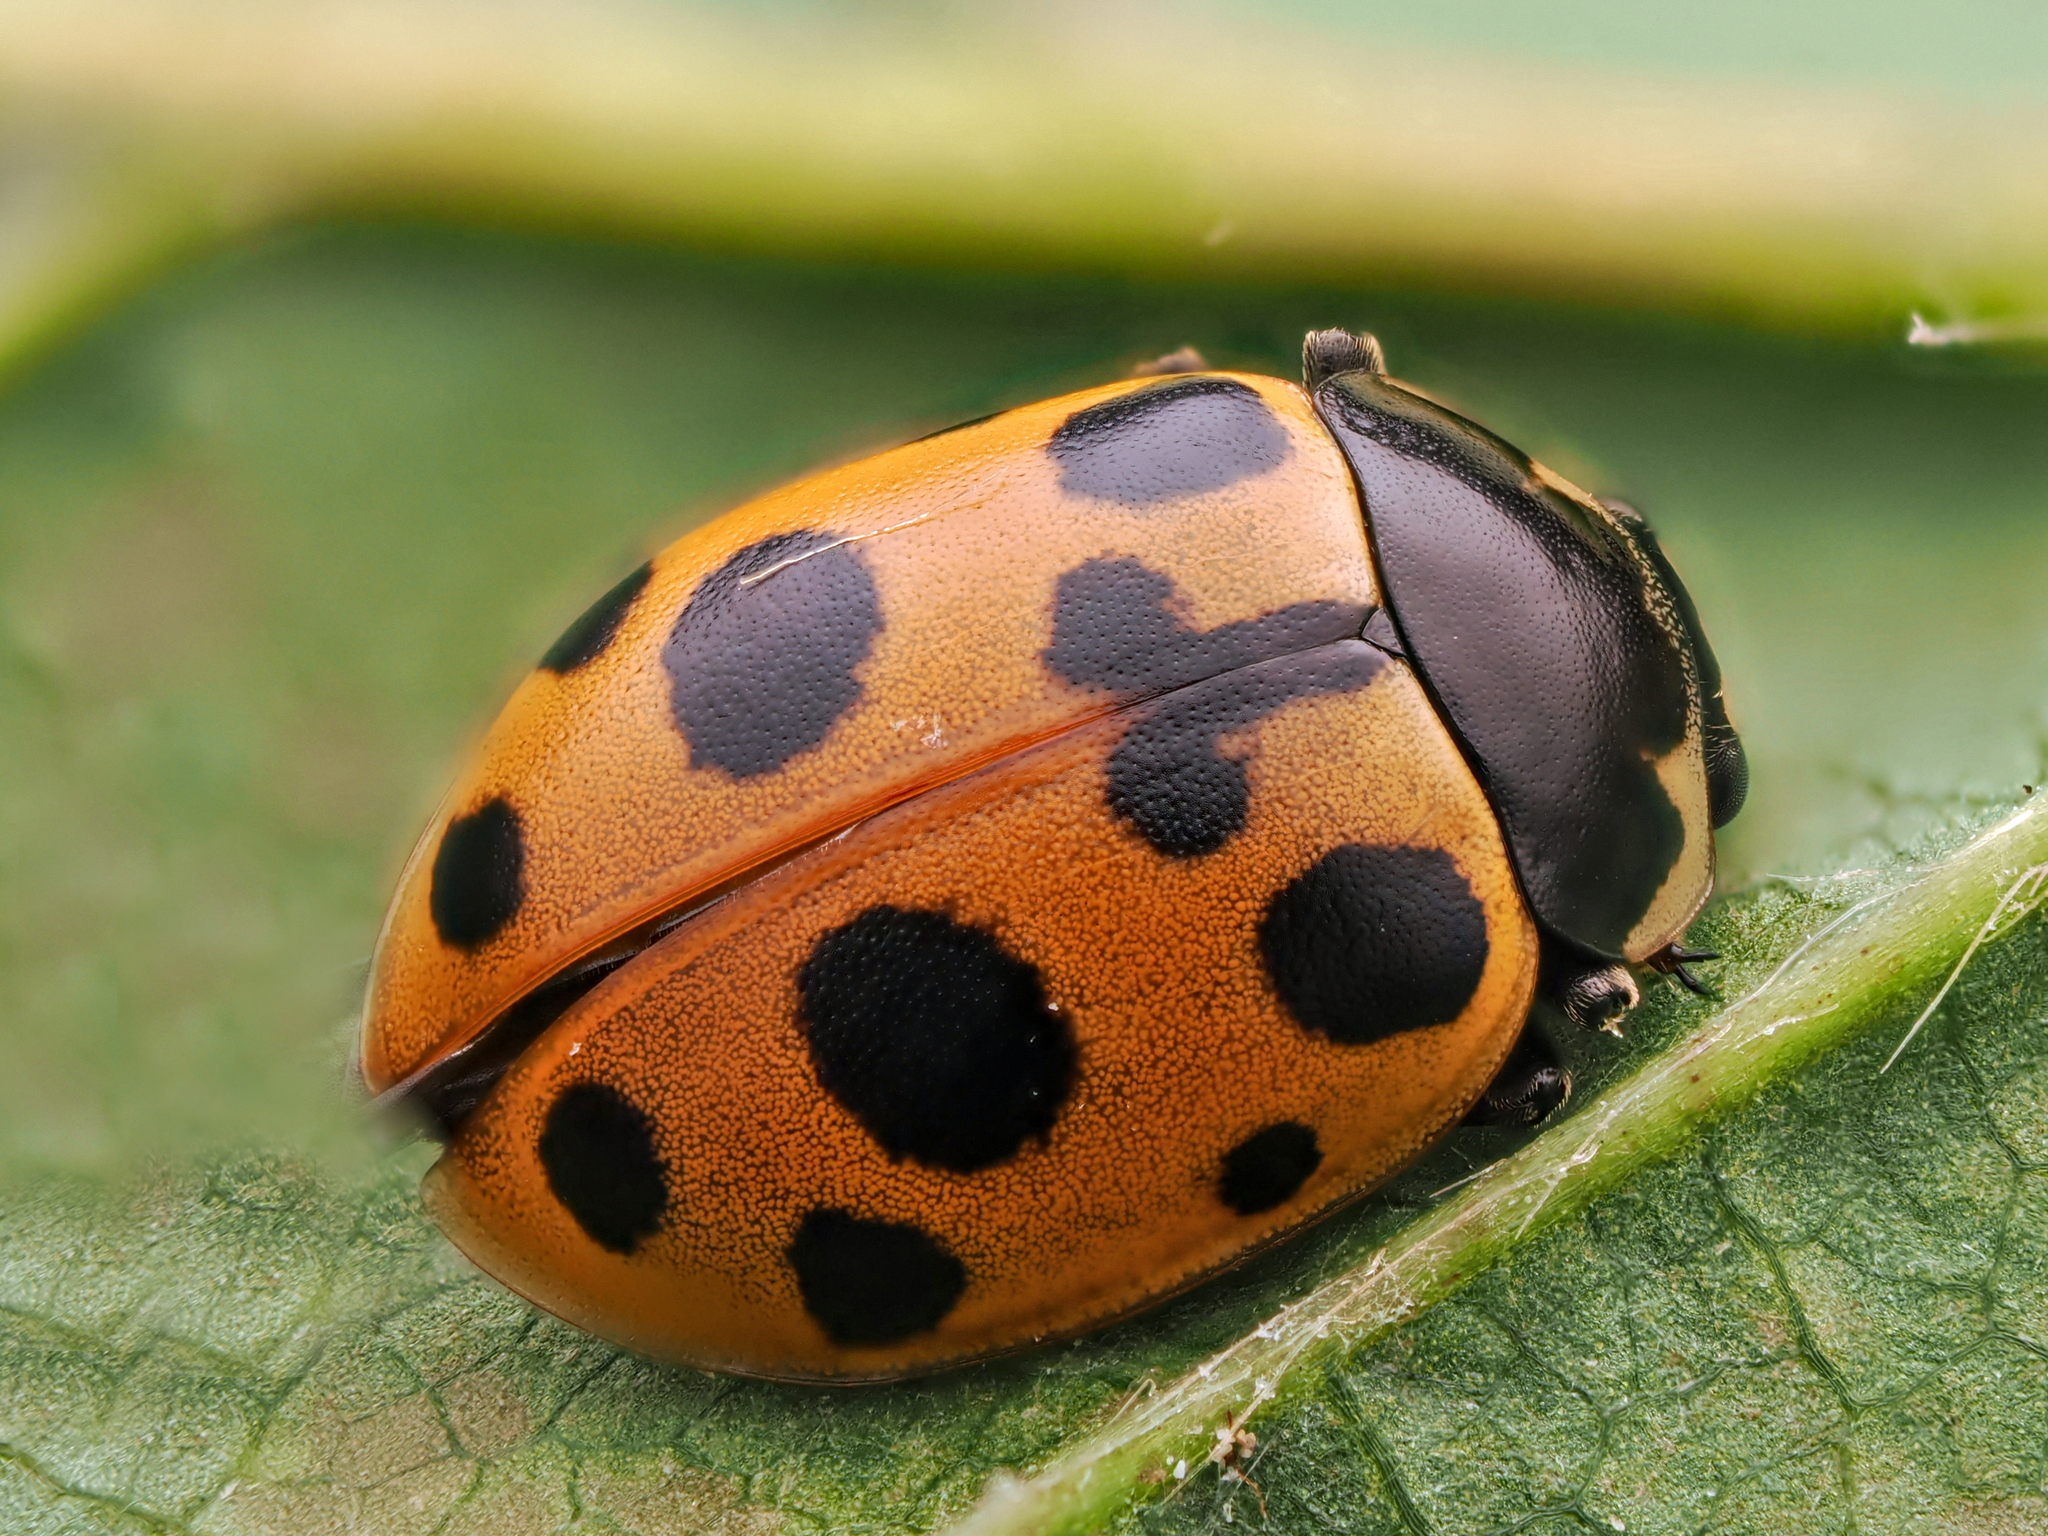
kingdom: Animalia
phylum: Arthropoda
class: Insecta
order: Coleoptera
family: Coccinellidae
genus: Ceratomegilla
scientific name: Ceratomegilla notata
